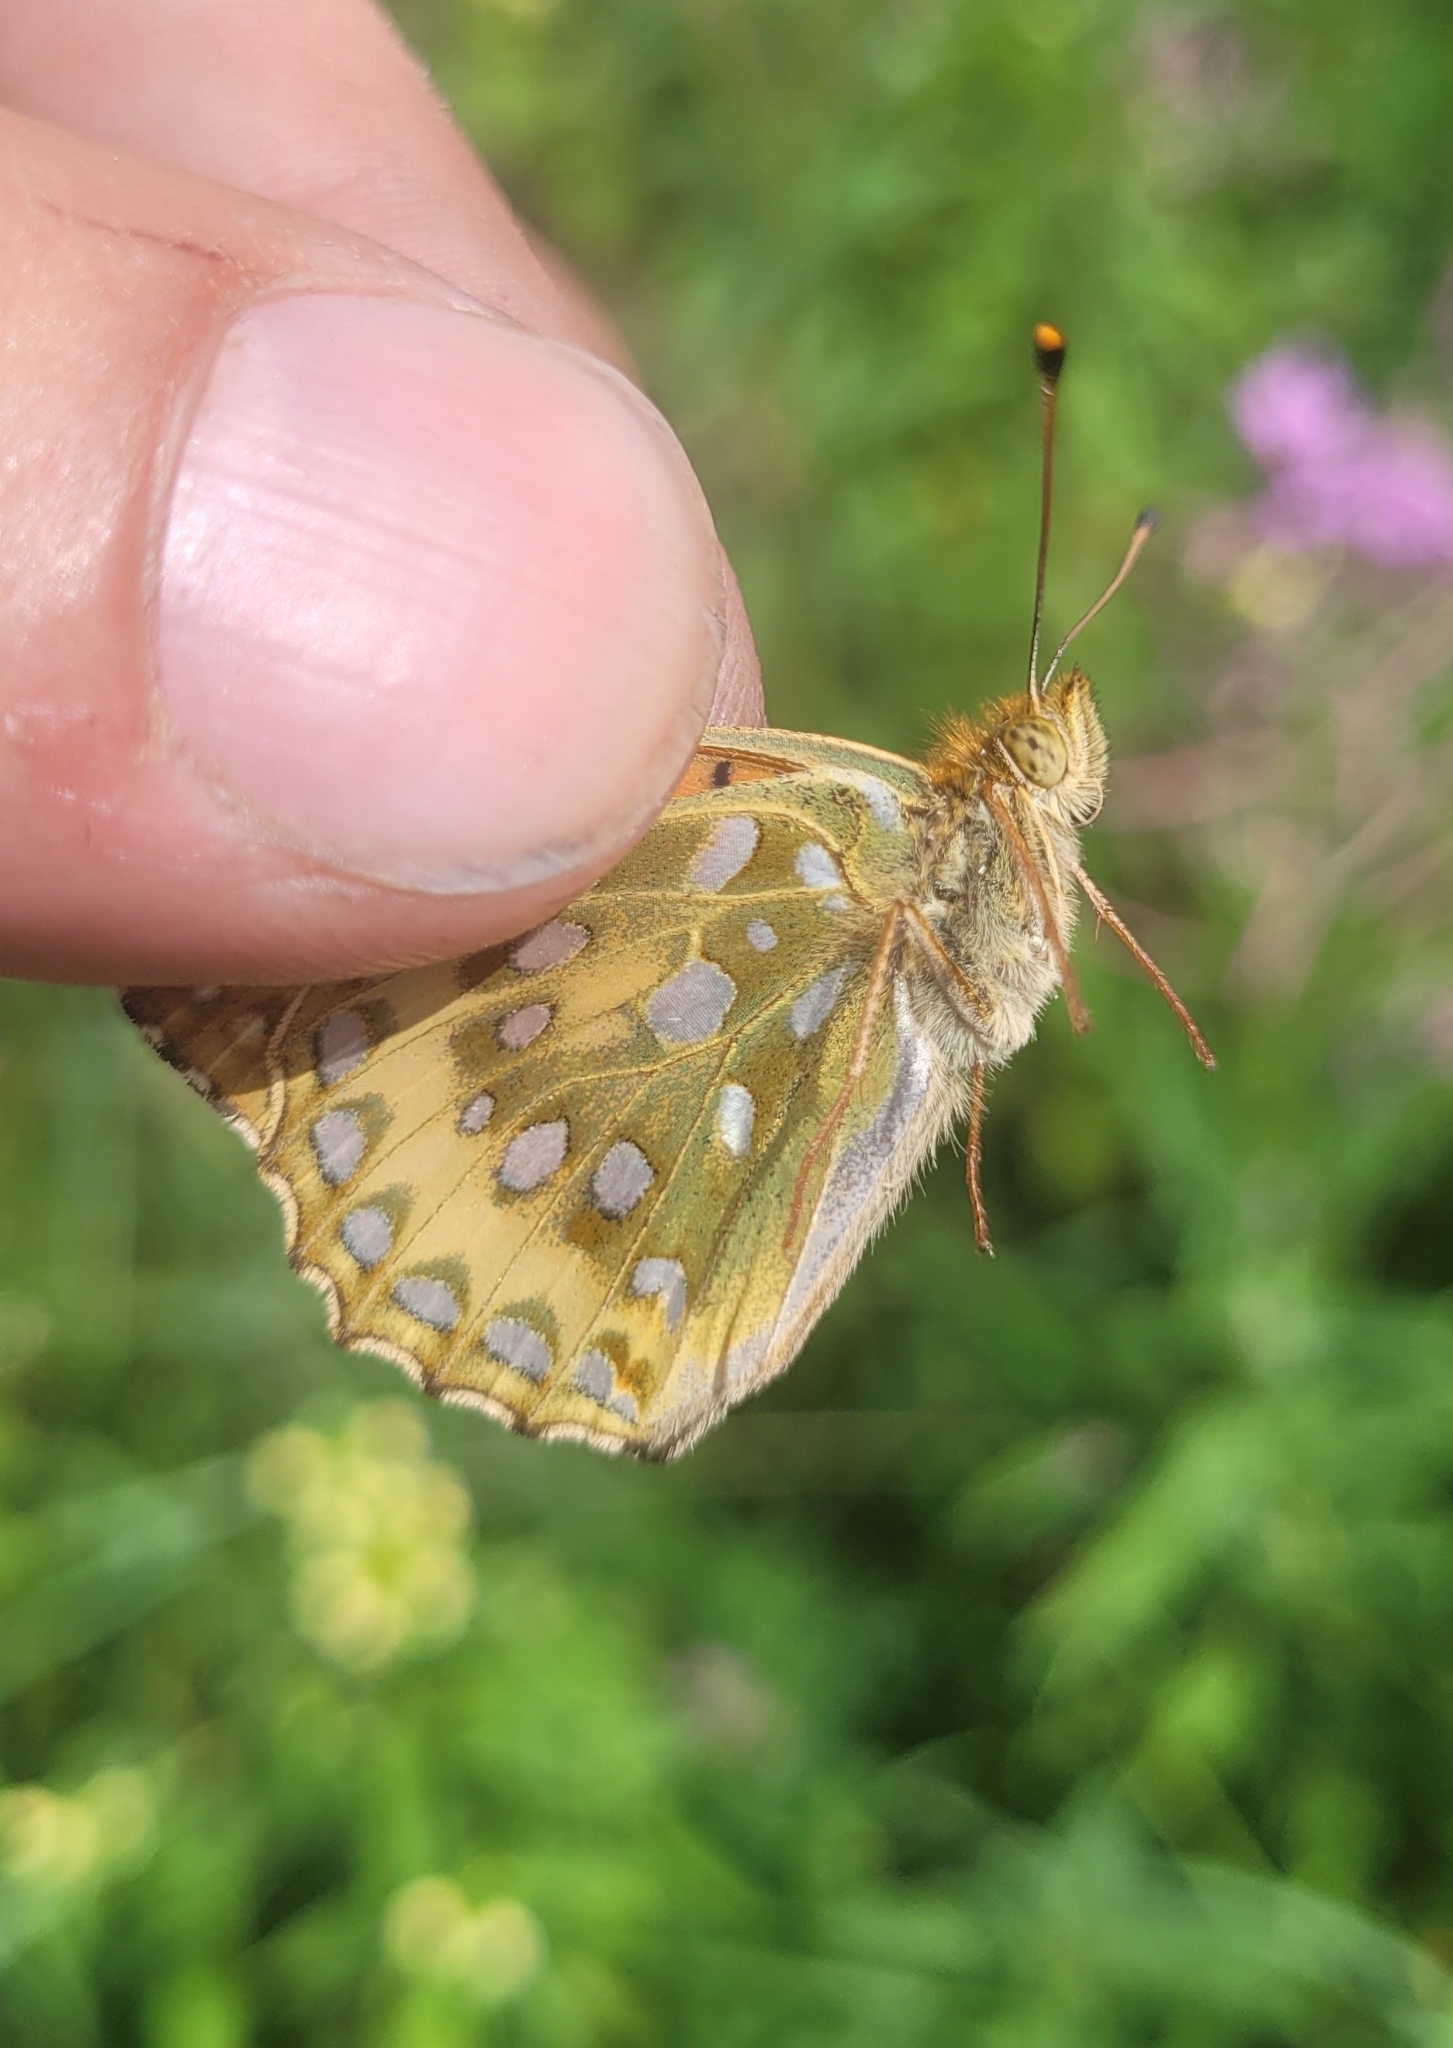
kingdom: Animalia
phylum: Arthropoda
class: Insecta
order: Lepidoptera
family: Nymphalidae
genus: Speyeria
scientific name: Speyeria aglaja
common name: Dark green fritillary
